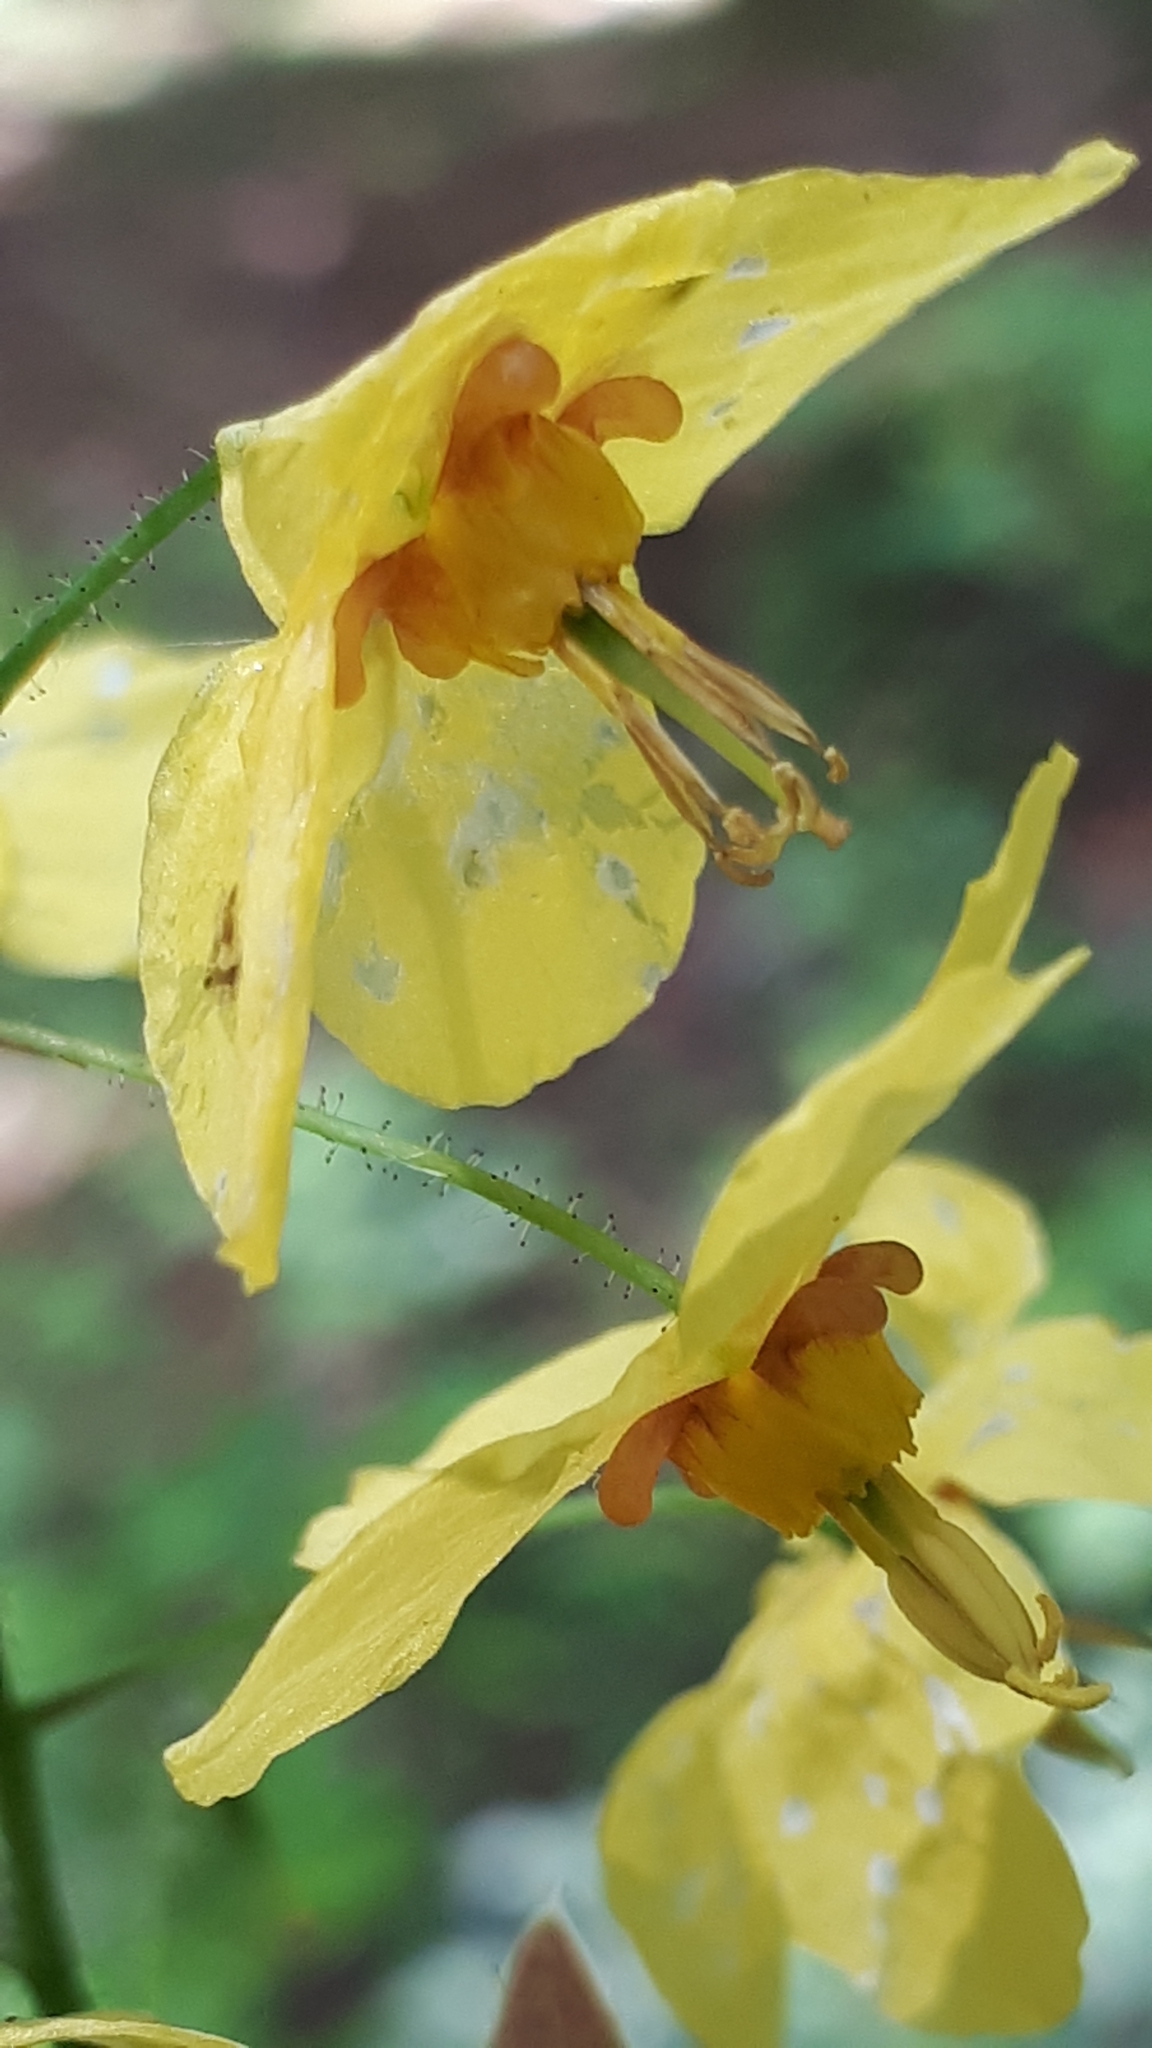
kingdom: Plantae
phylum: Tracheophyta
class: Magnoliopsida
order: Ranunculales
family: Berberidaceae
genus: Epimedium
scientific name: Epimedium perralderianum
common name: Algerian barrenwort
